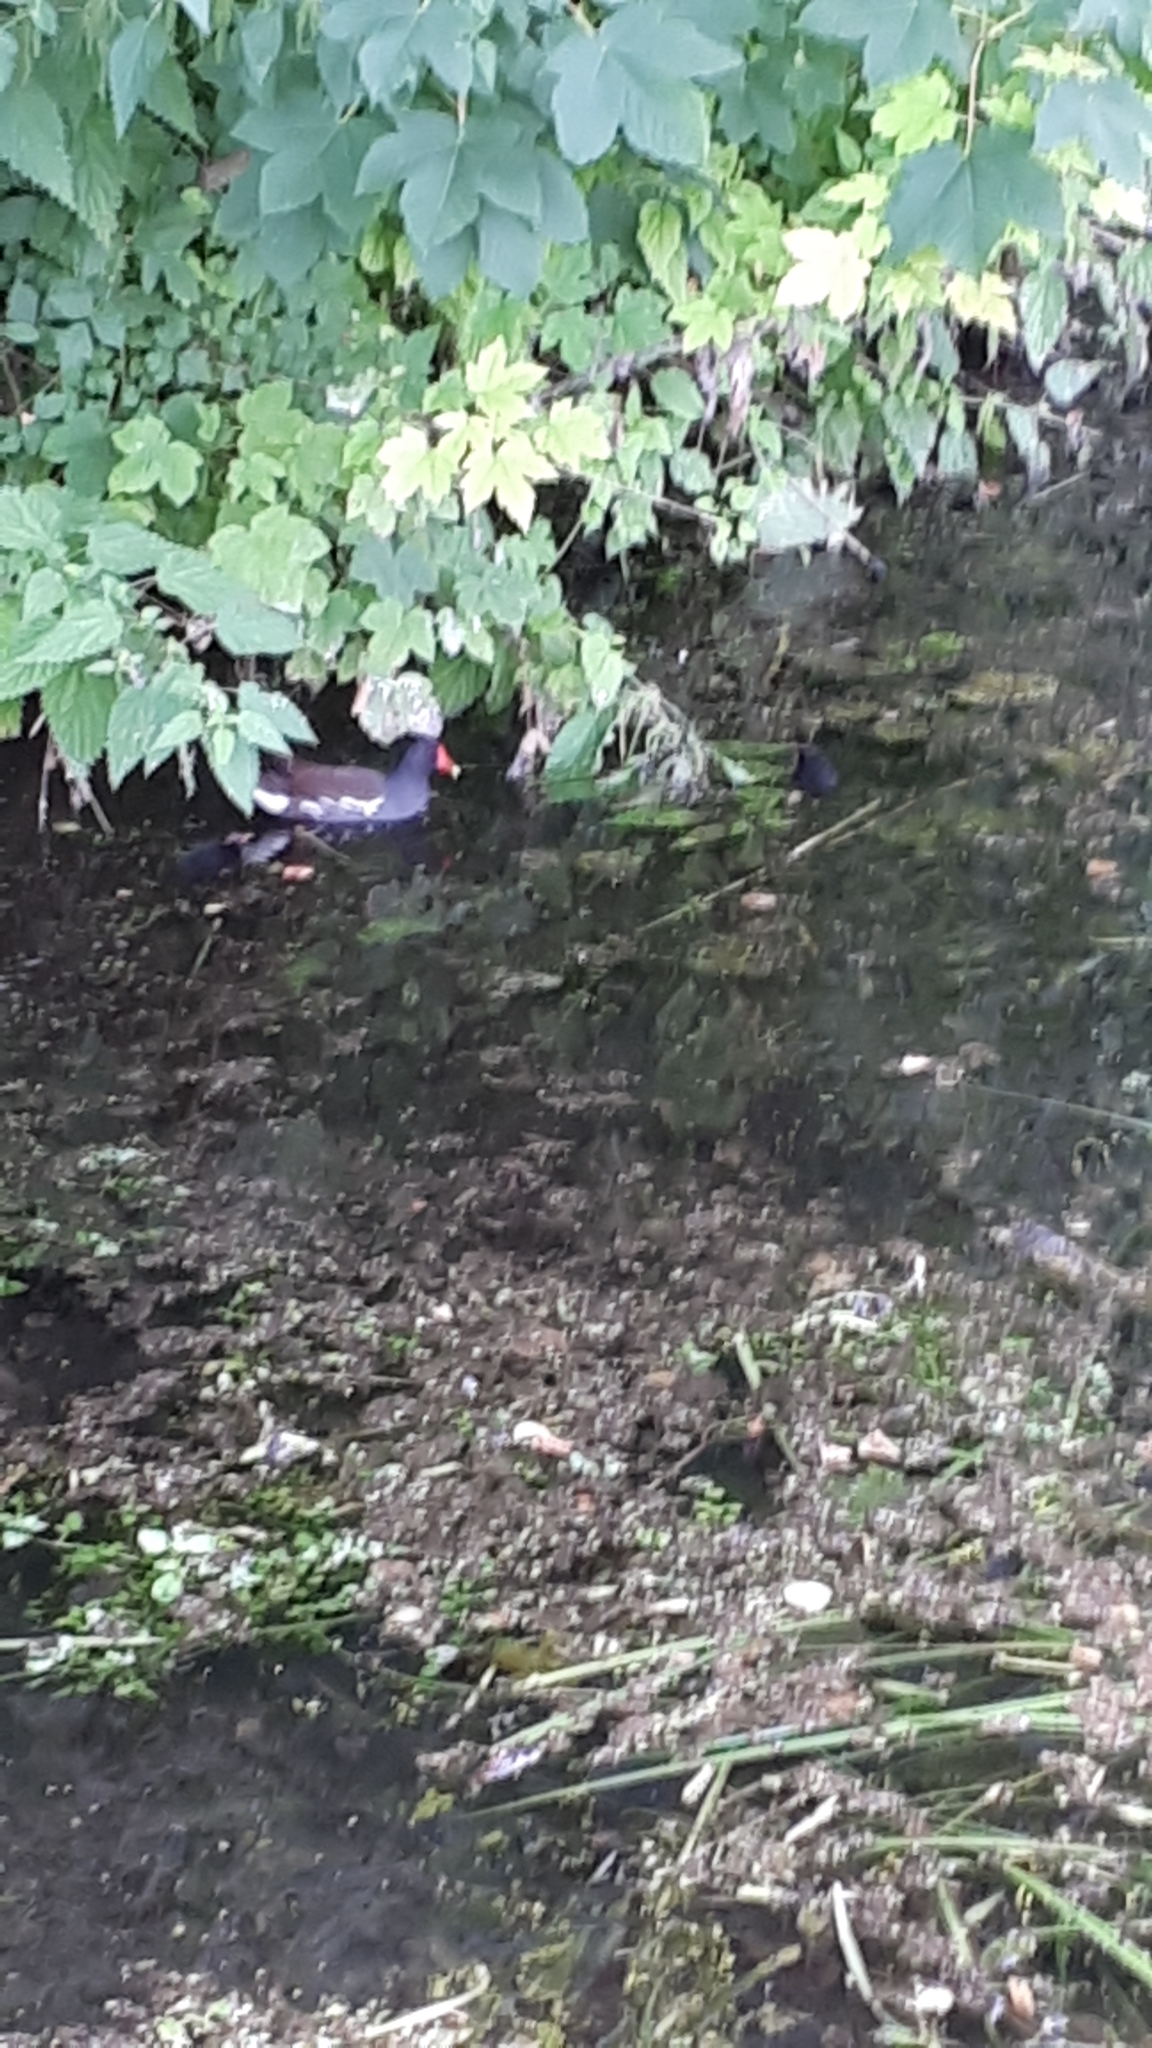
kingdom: Animalia
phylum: Chordata
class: Aves
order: Gruiformes
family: Rallidae
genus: Gallinula
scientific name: Gallinula chloropus
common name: Common moorhen
